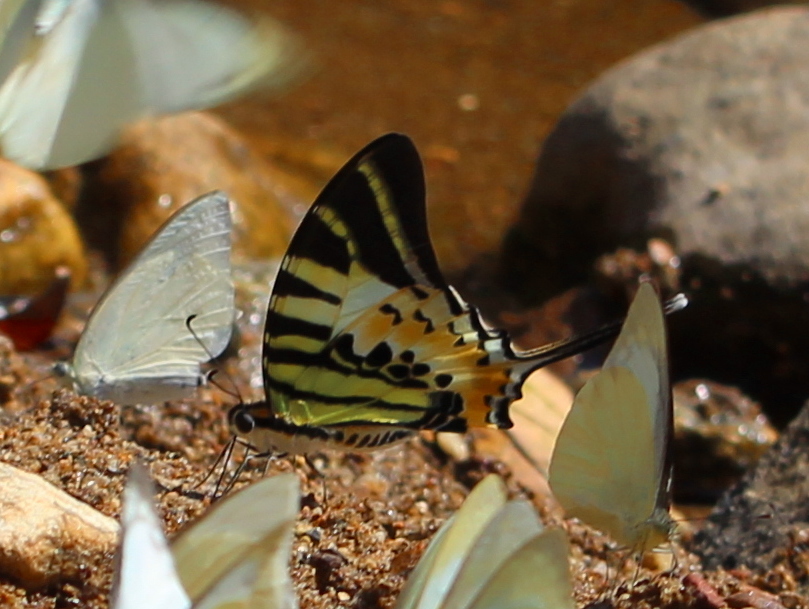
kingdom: Animalia
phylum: Arthropoda
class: Insecta
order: Lepidoptera
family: Papilionidae
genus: Graphium
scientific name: Graphium antiphates
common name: Fivebar swordtail
